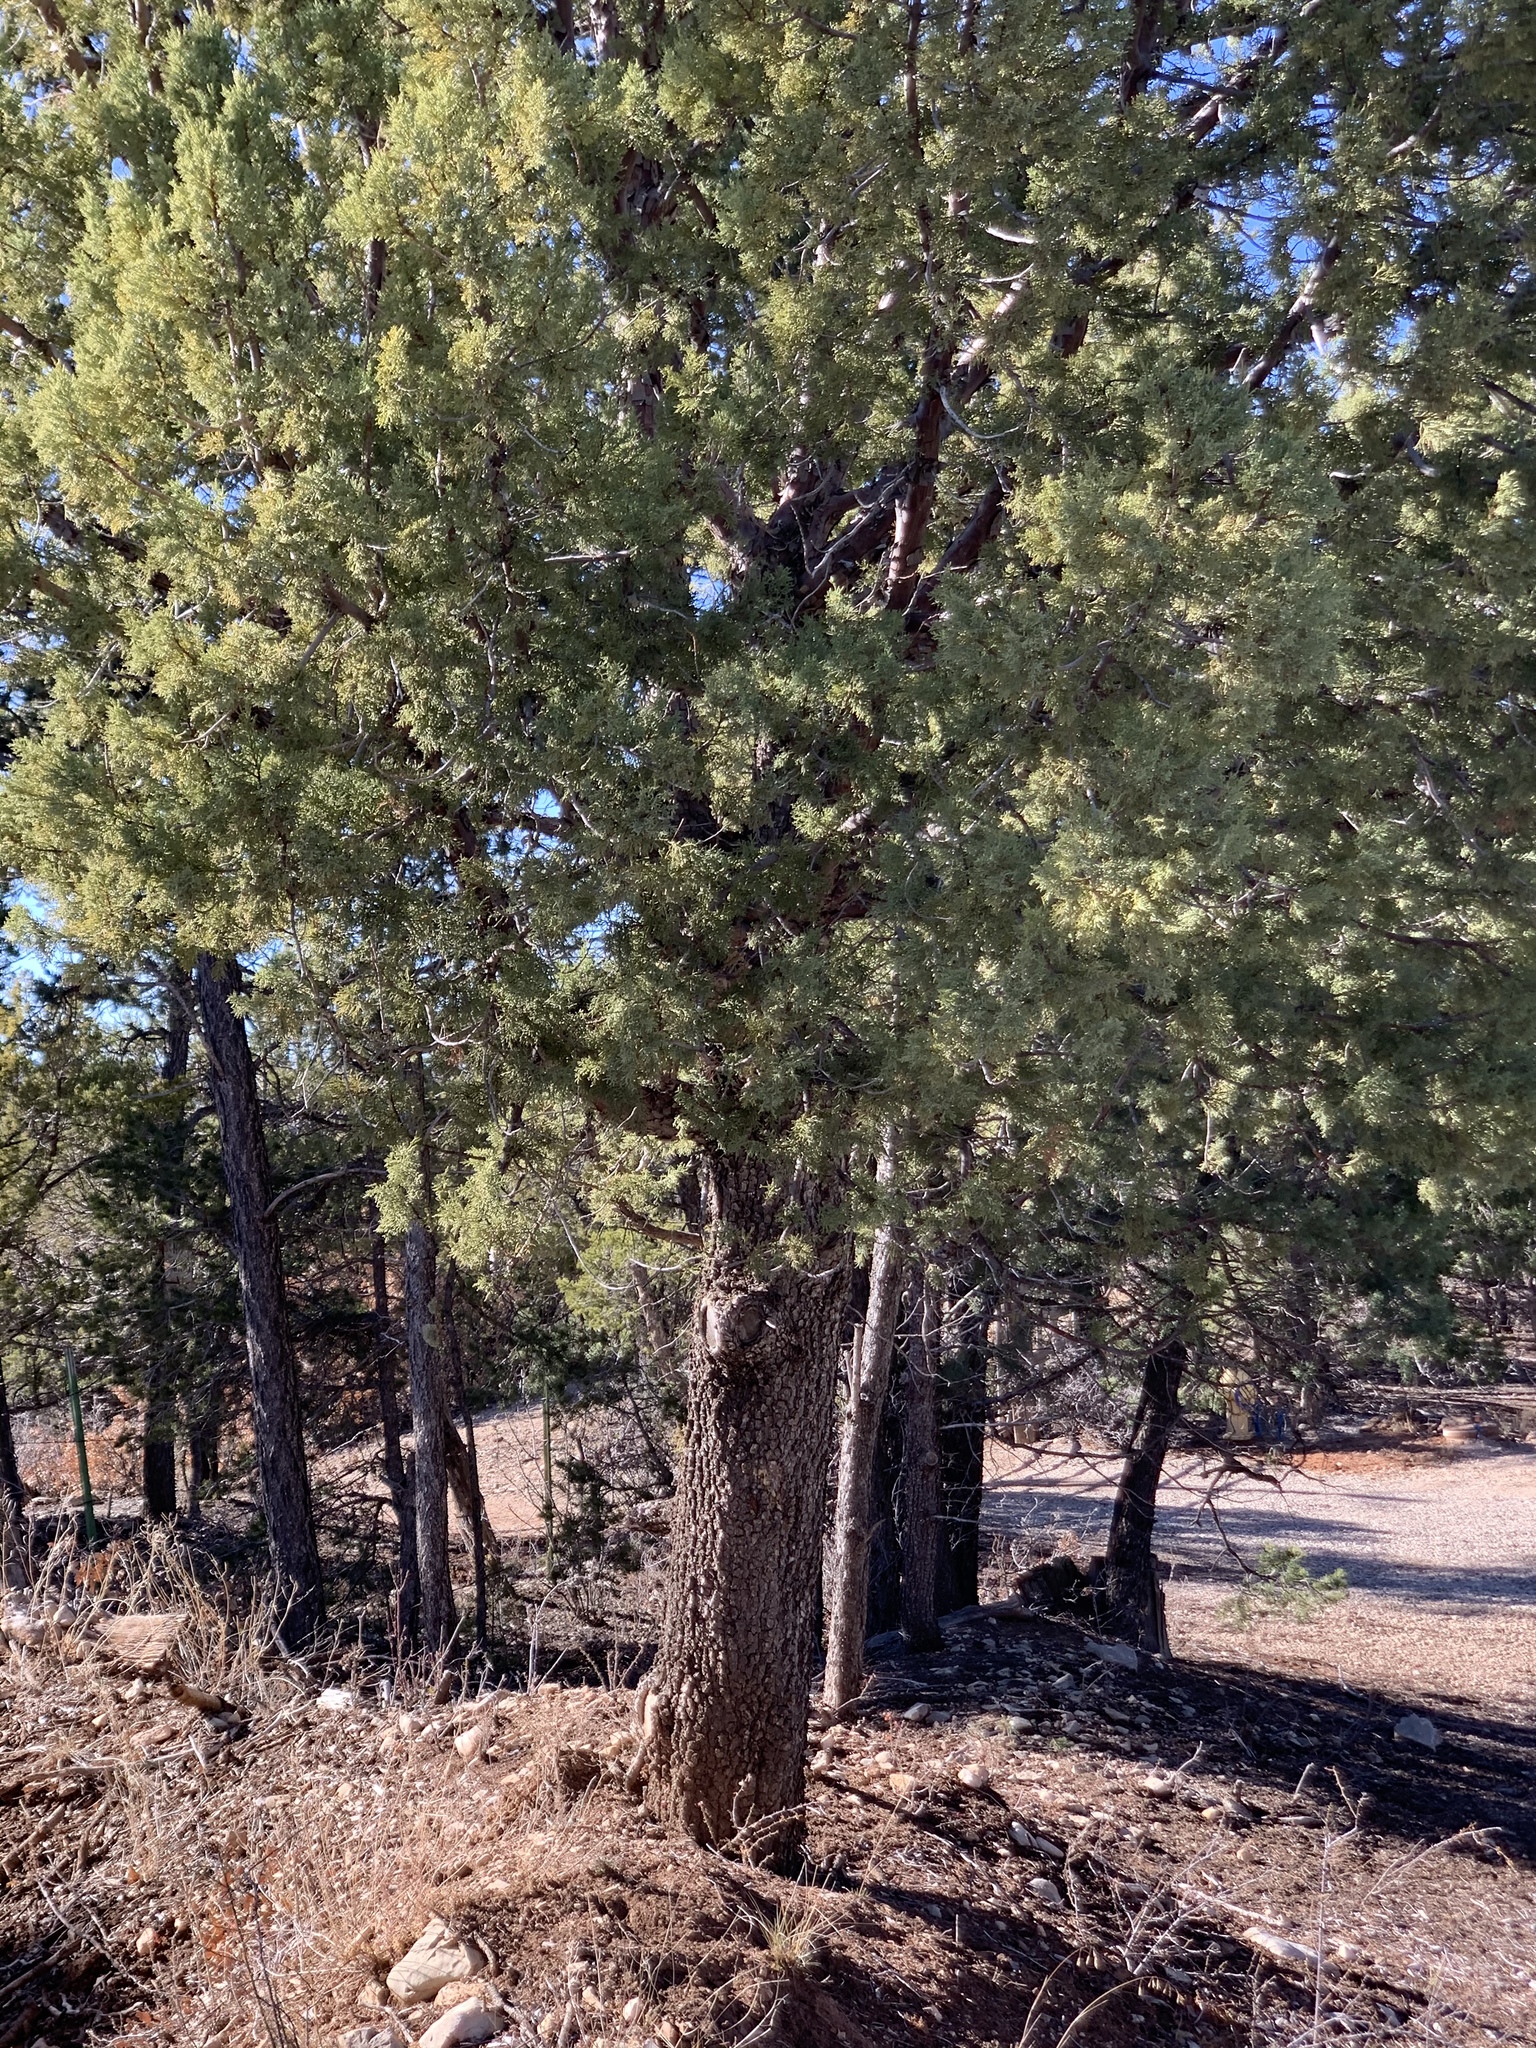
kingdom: Plantae
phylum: Tracheophyta
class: Pinopsida
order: Pinales
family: Cupressaceae
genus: Juniperus
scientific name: Juniperus deppeana
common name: Alligator juniper
